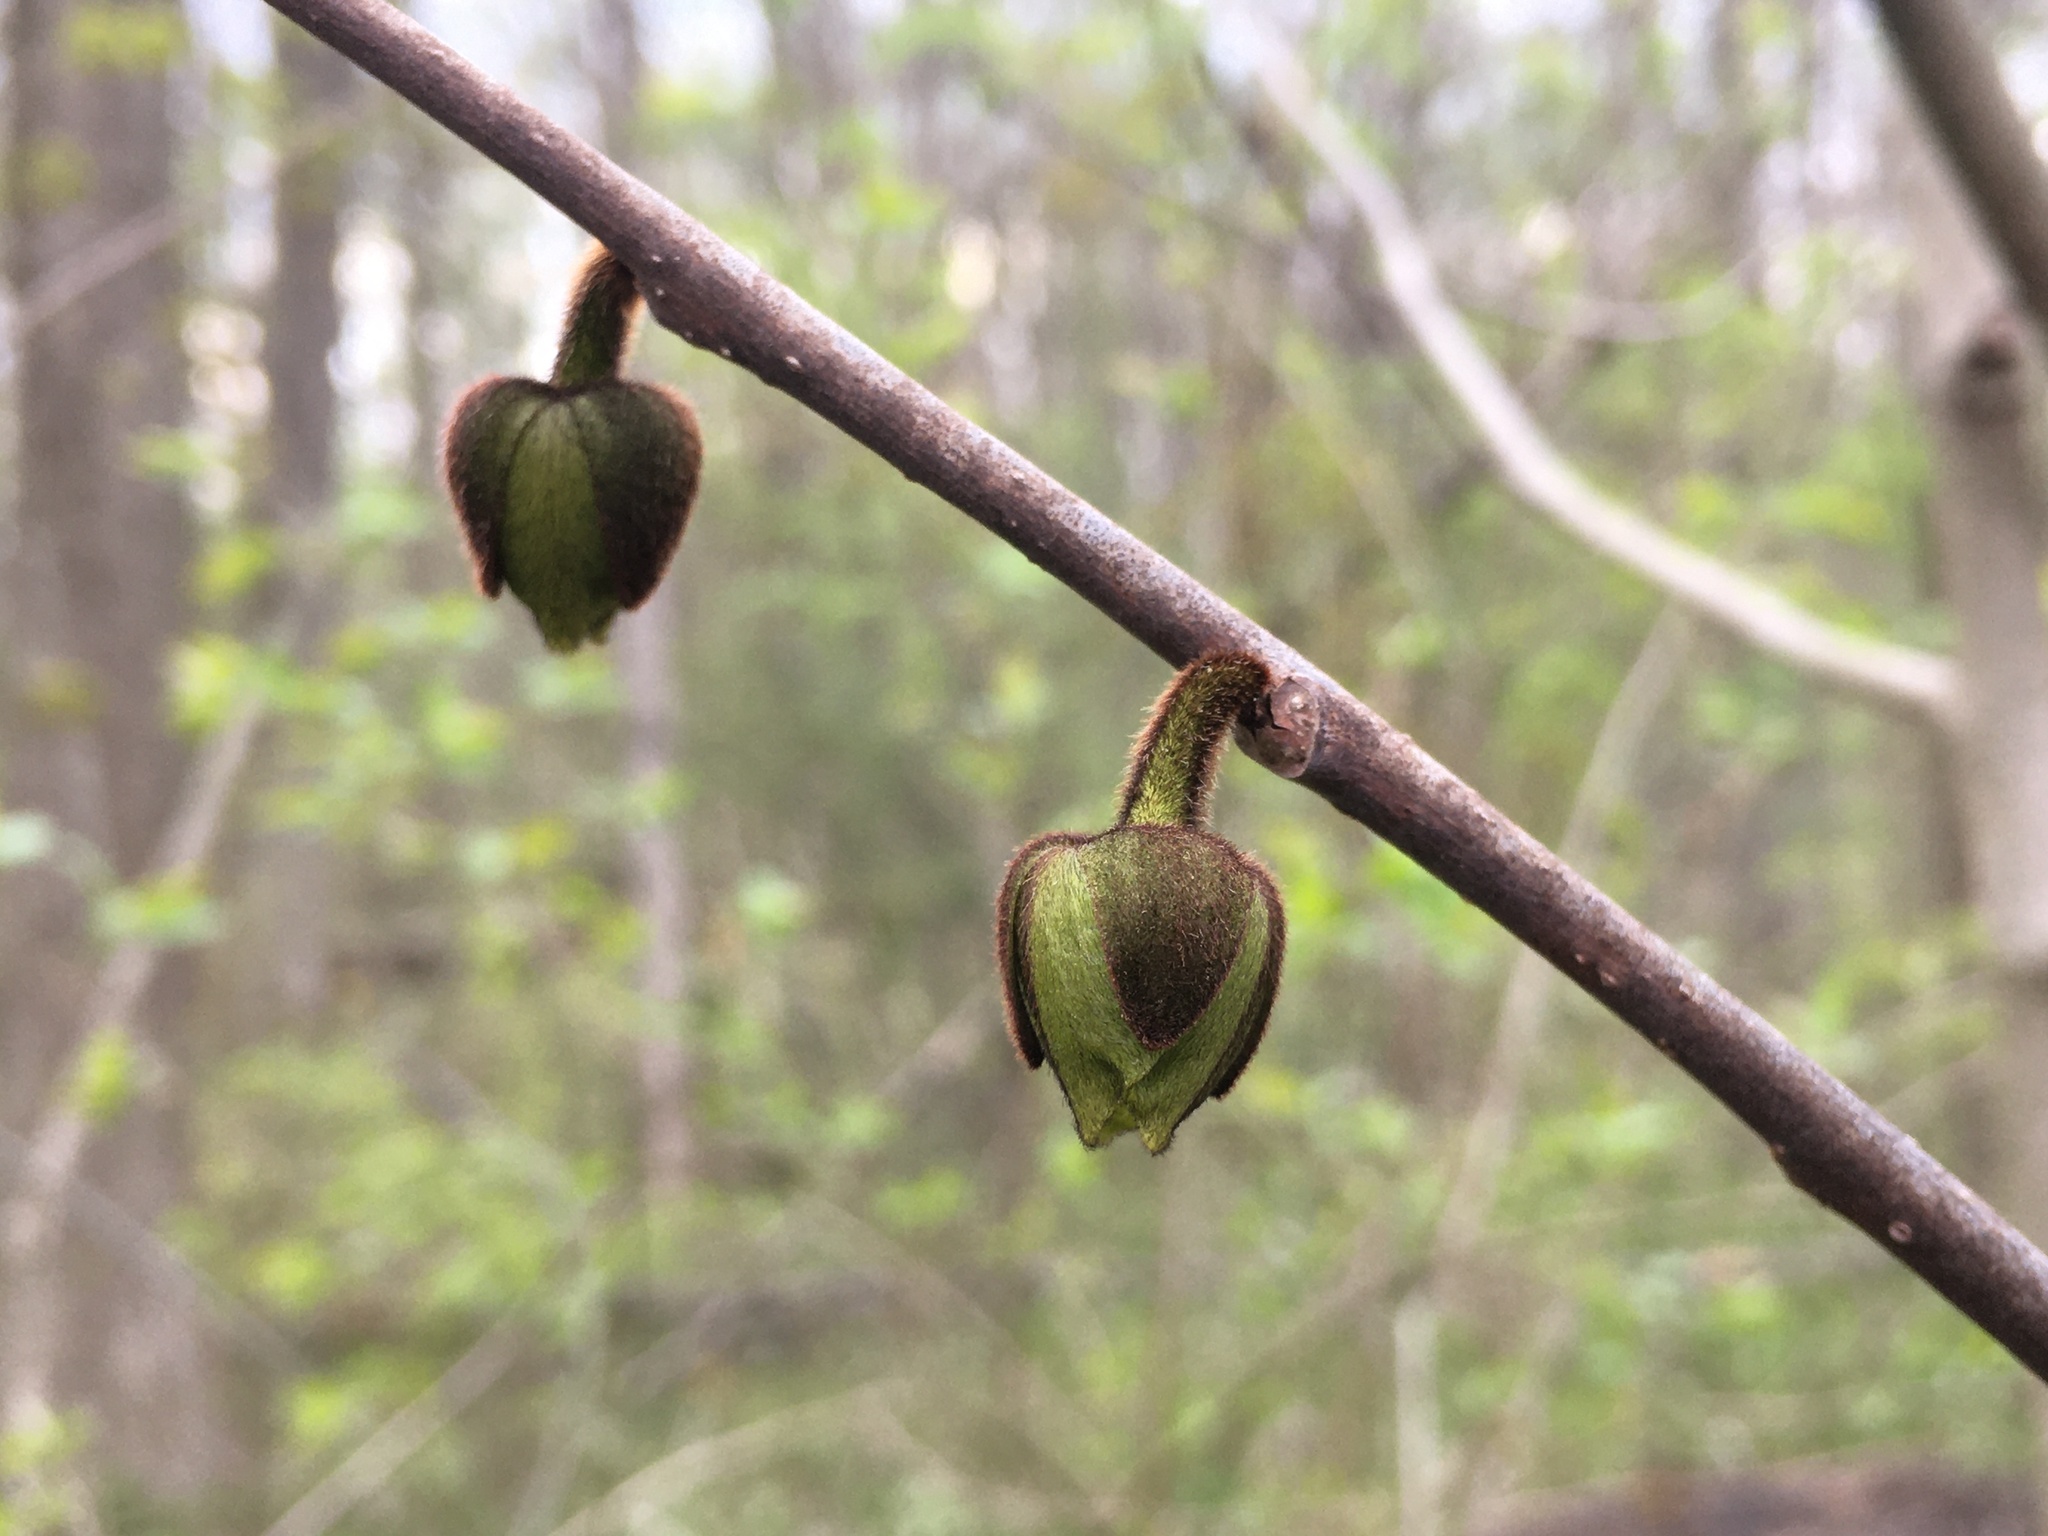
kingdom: Plantae
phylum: Tracheophyta
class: Magnoliopsida
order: Magnoliales
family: Annonaceae
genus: Asimina
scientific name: Asimina triloba
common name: Dog-banana
